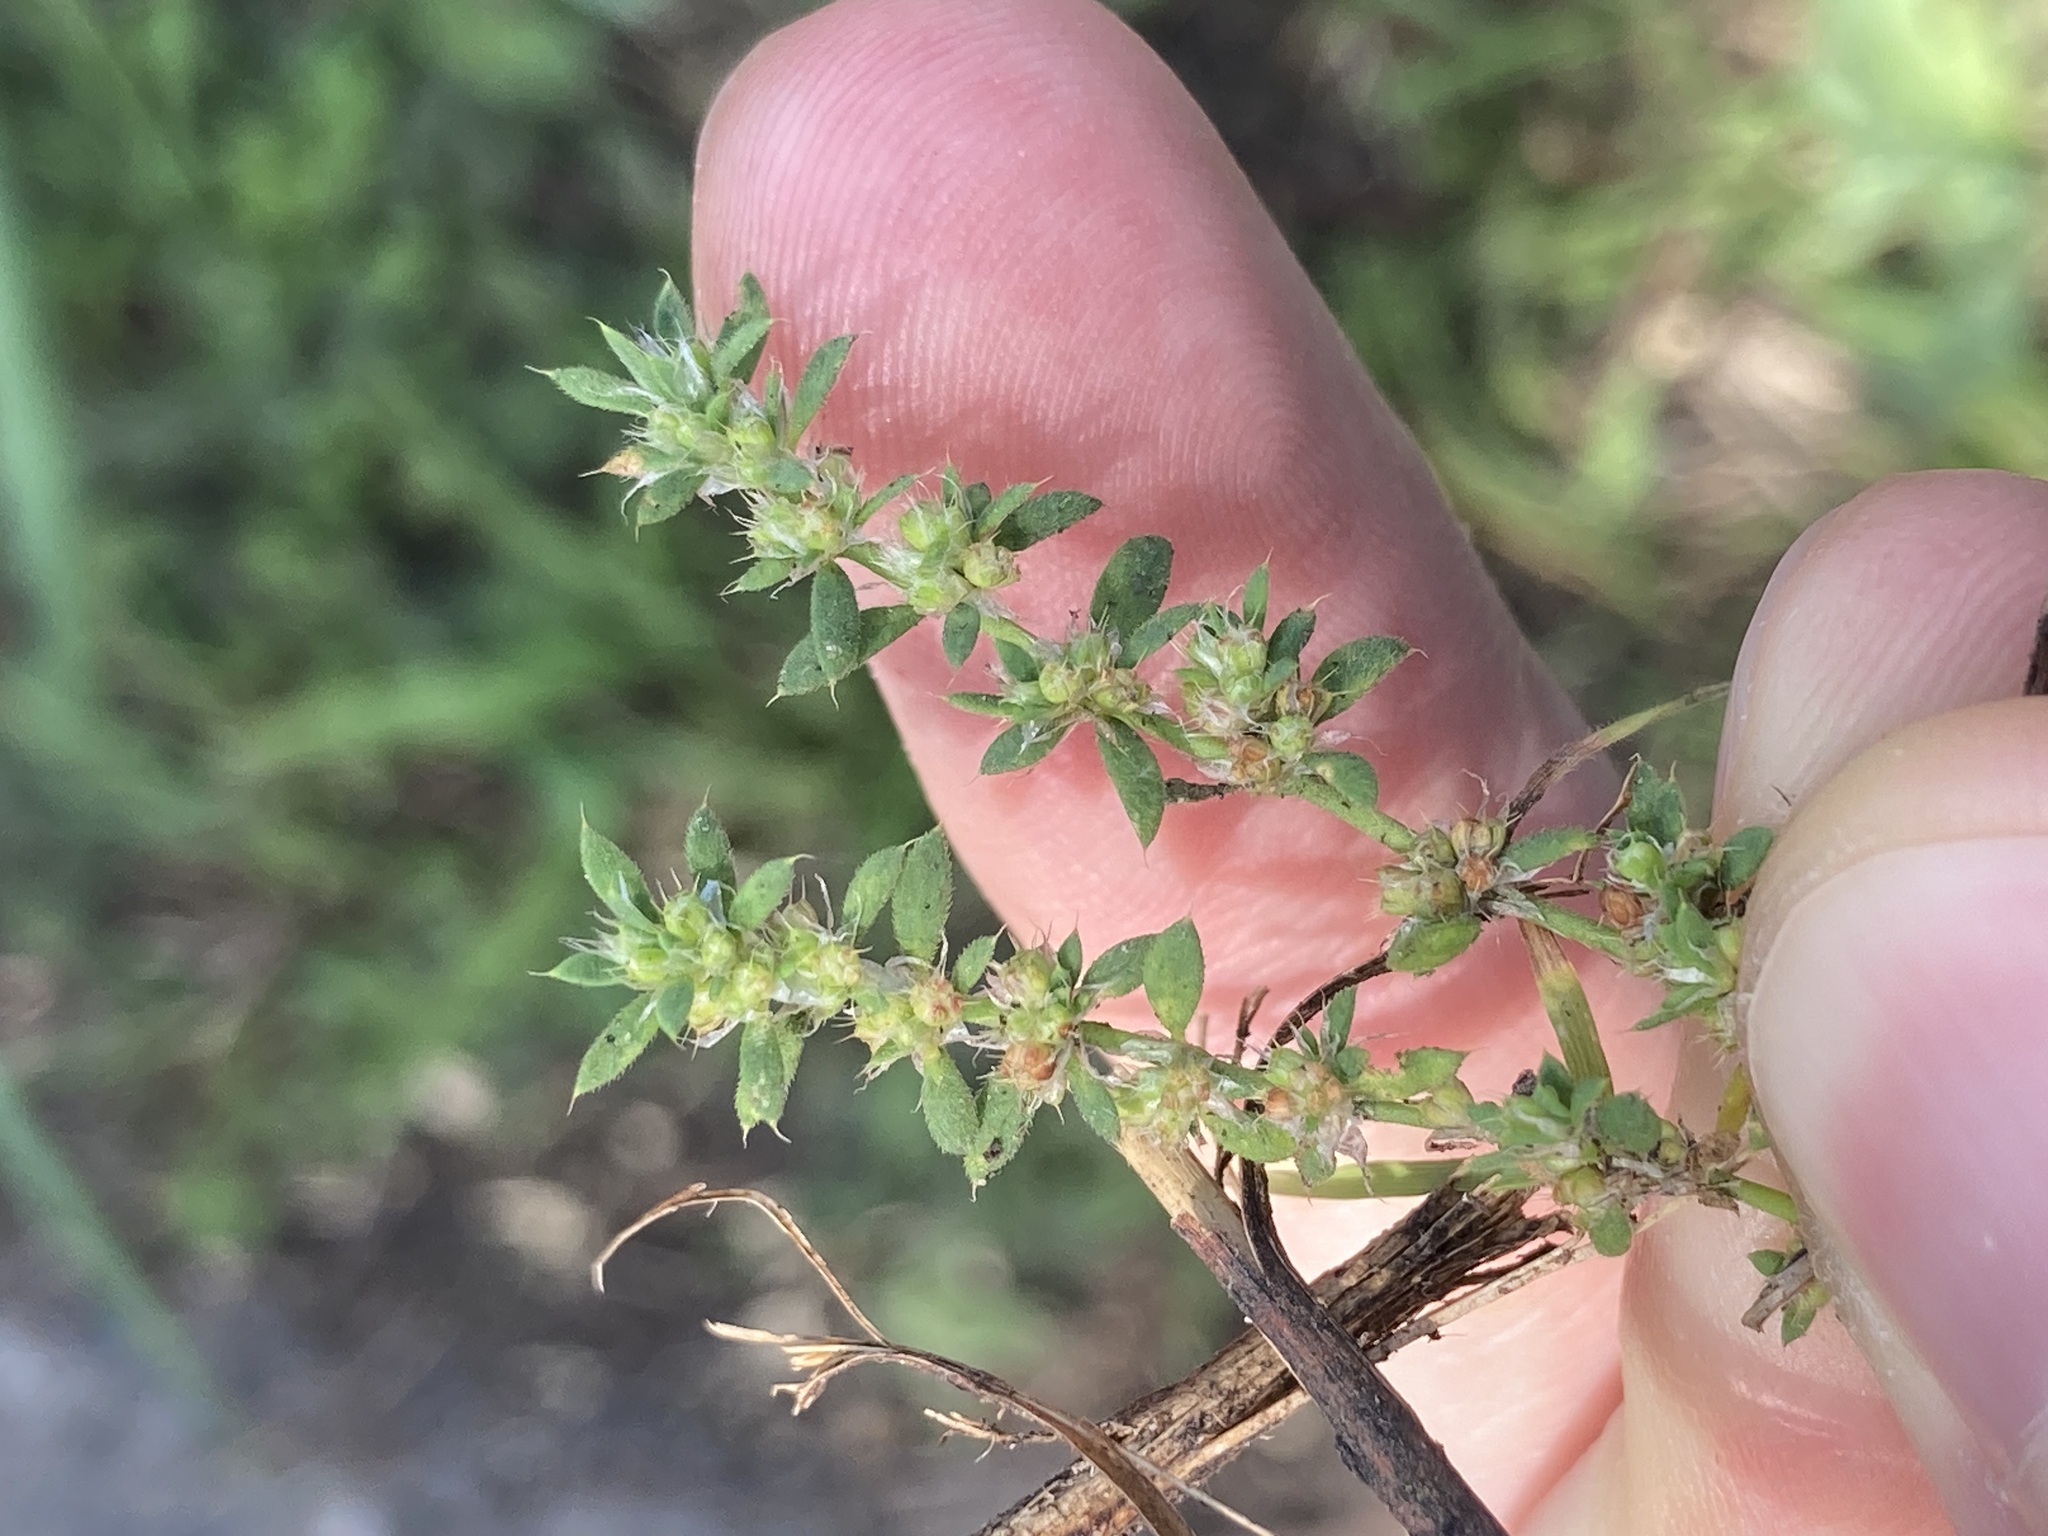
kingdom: Plantae
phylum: Tracheophyta
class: Magnoliopsida
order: Caryophyllales
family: Caryophyllaceae
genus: Paronychia
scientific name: Paronychia brasiliana
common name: Brazilian whitlow
